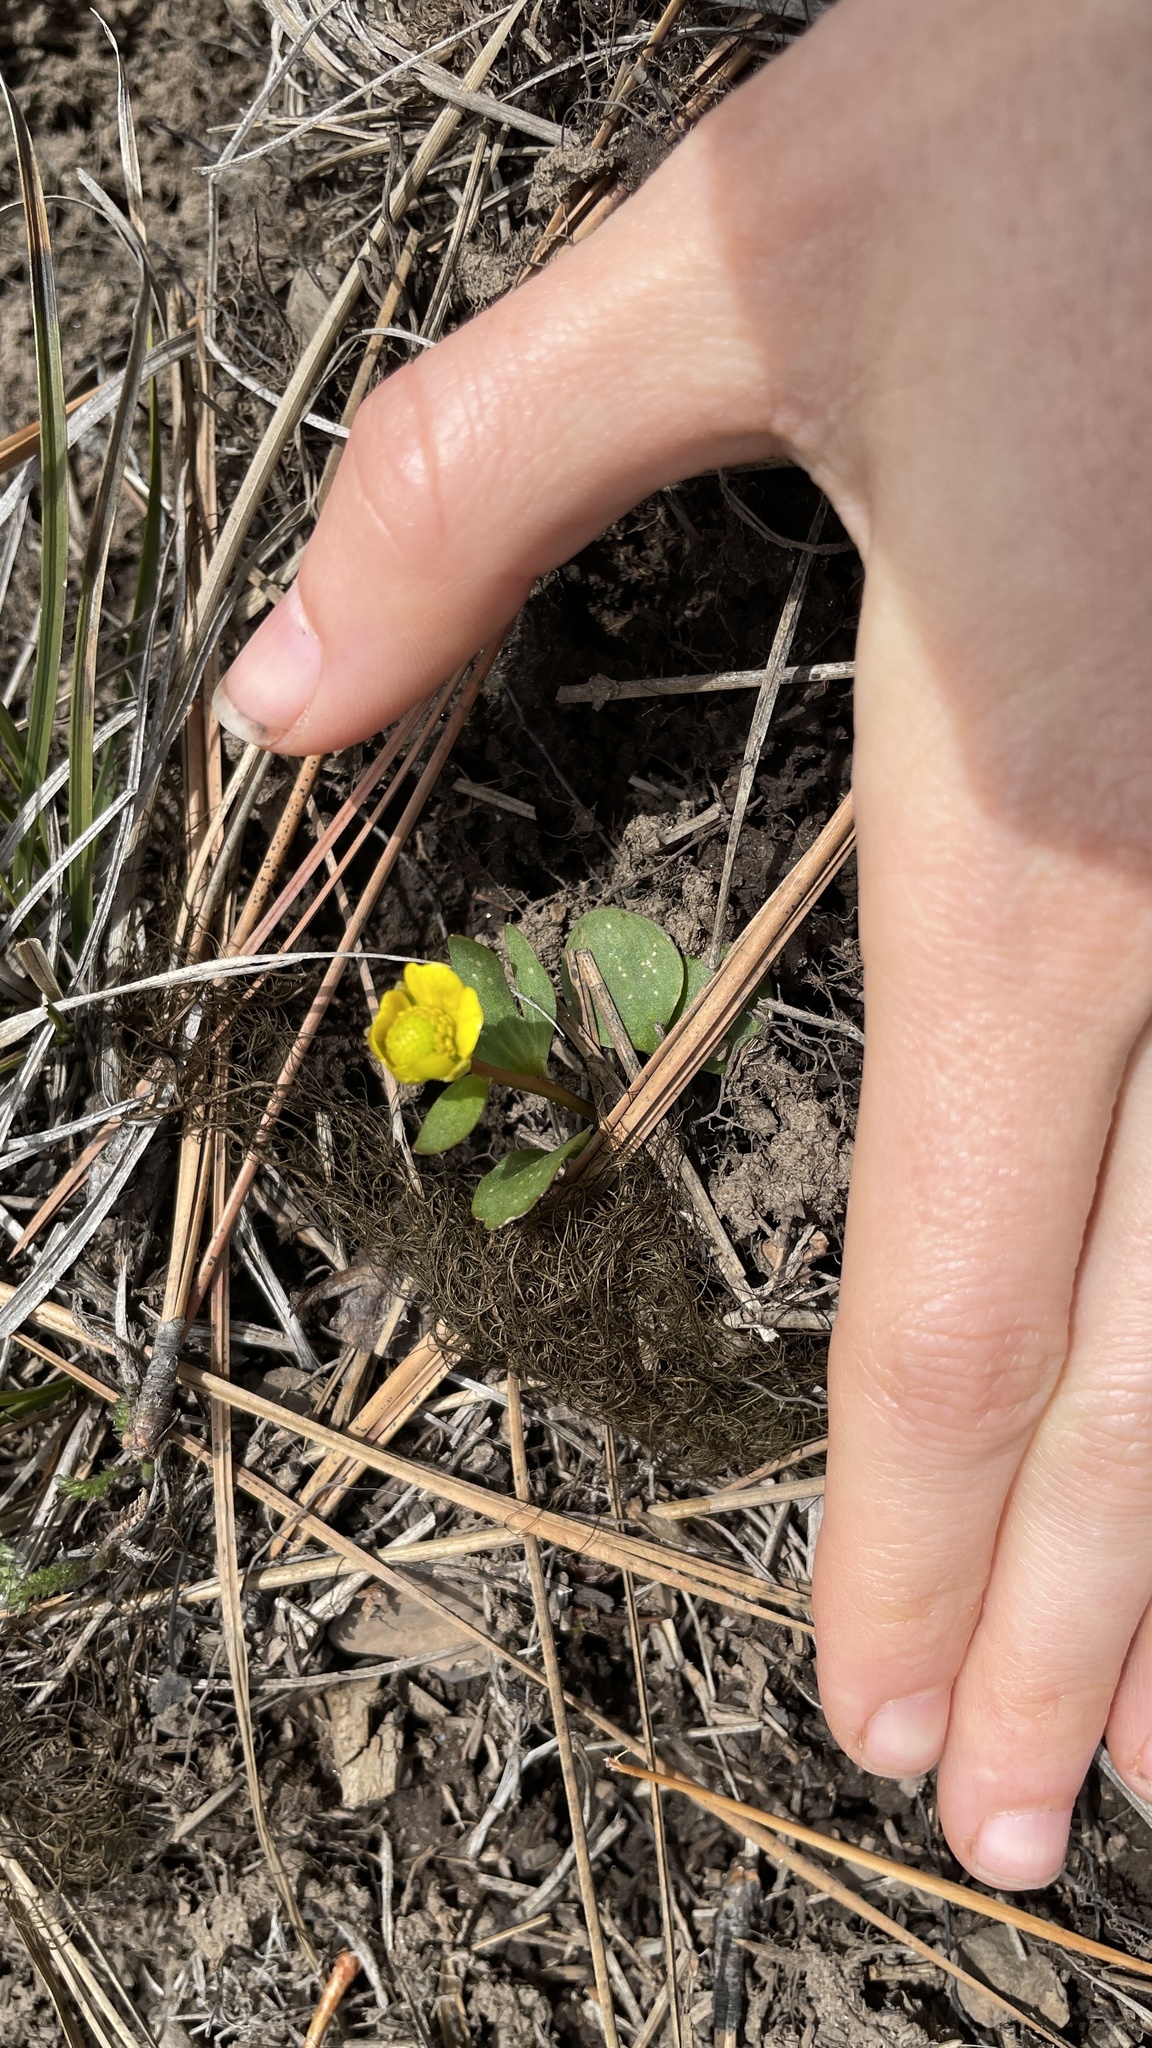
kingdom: Plantae
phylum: Tracheophyta
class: Magnoliopsida
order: Ranunculales
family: Ranunculaceae
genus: Ranunculus
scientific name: Ranunculus glaberrimus
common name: Sagebrush buttercup
